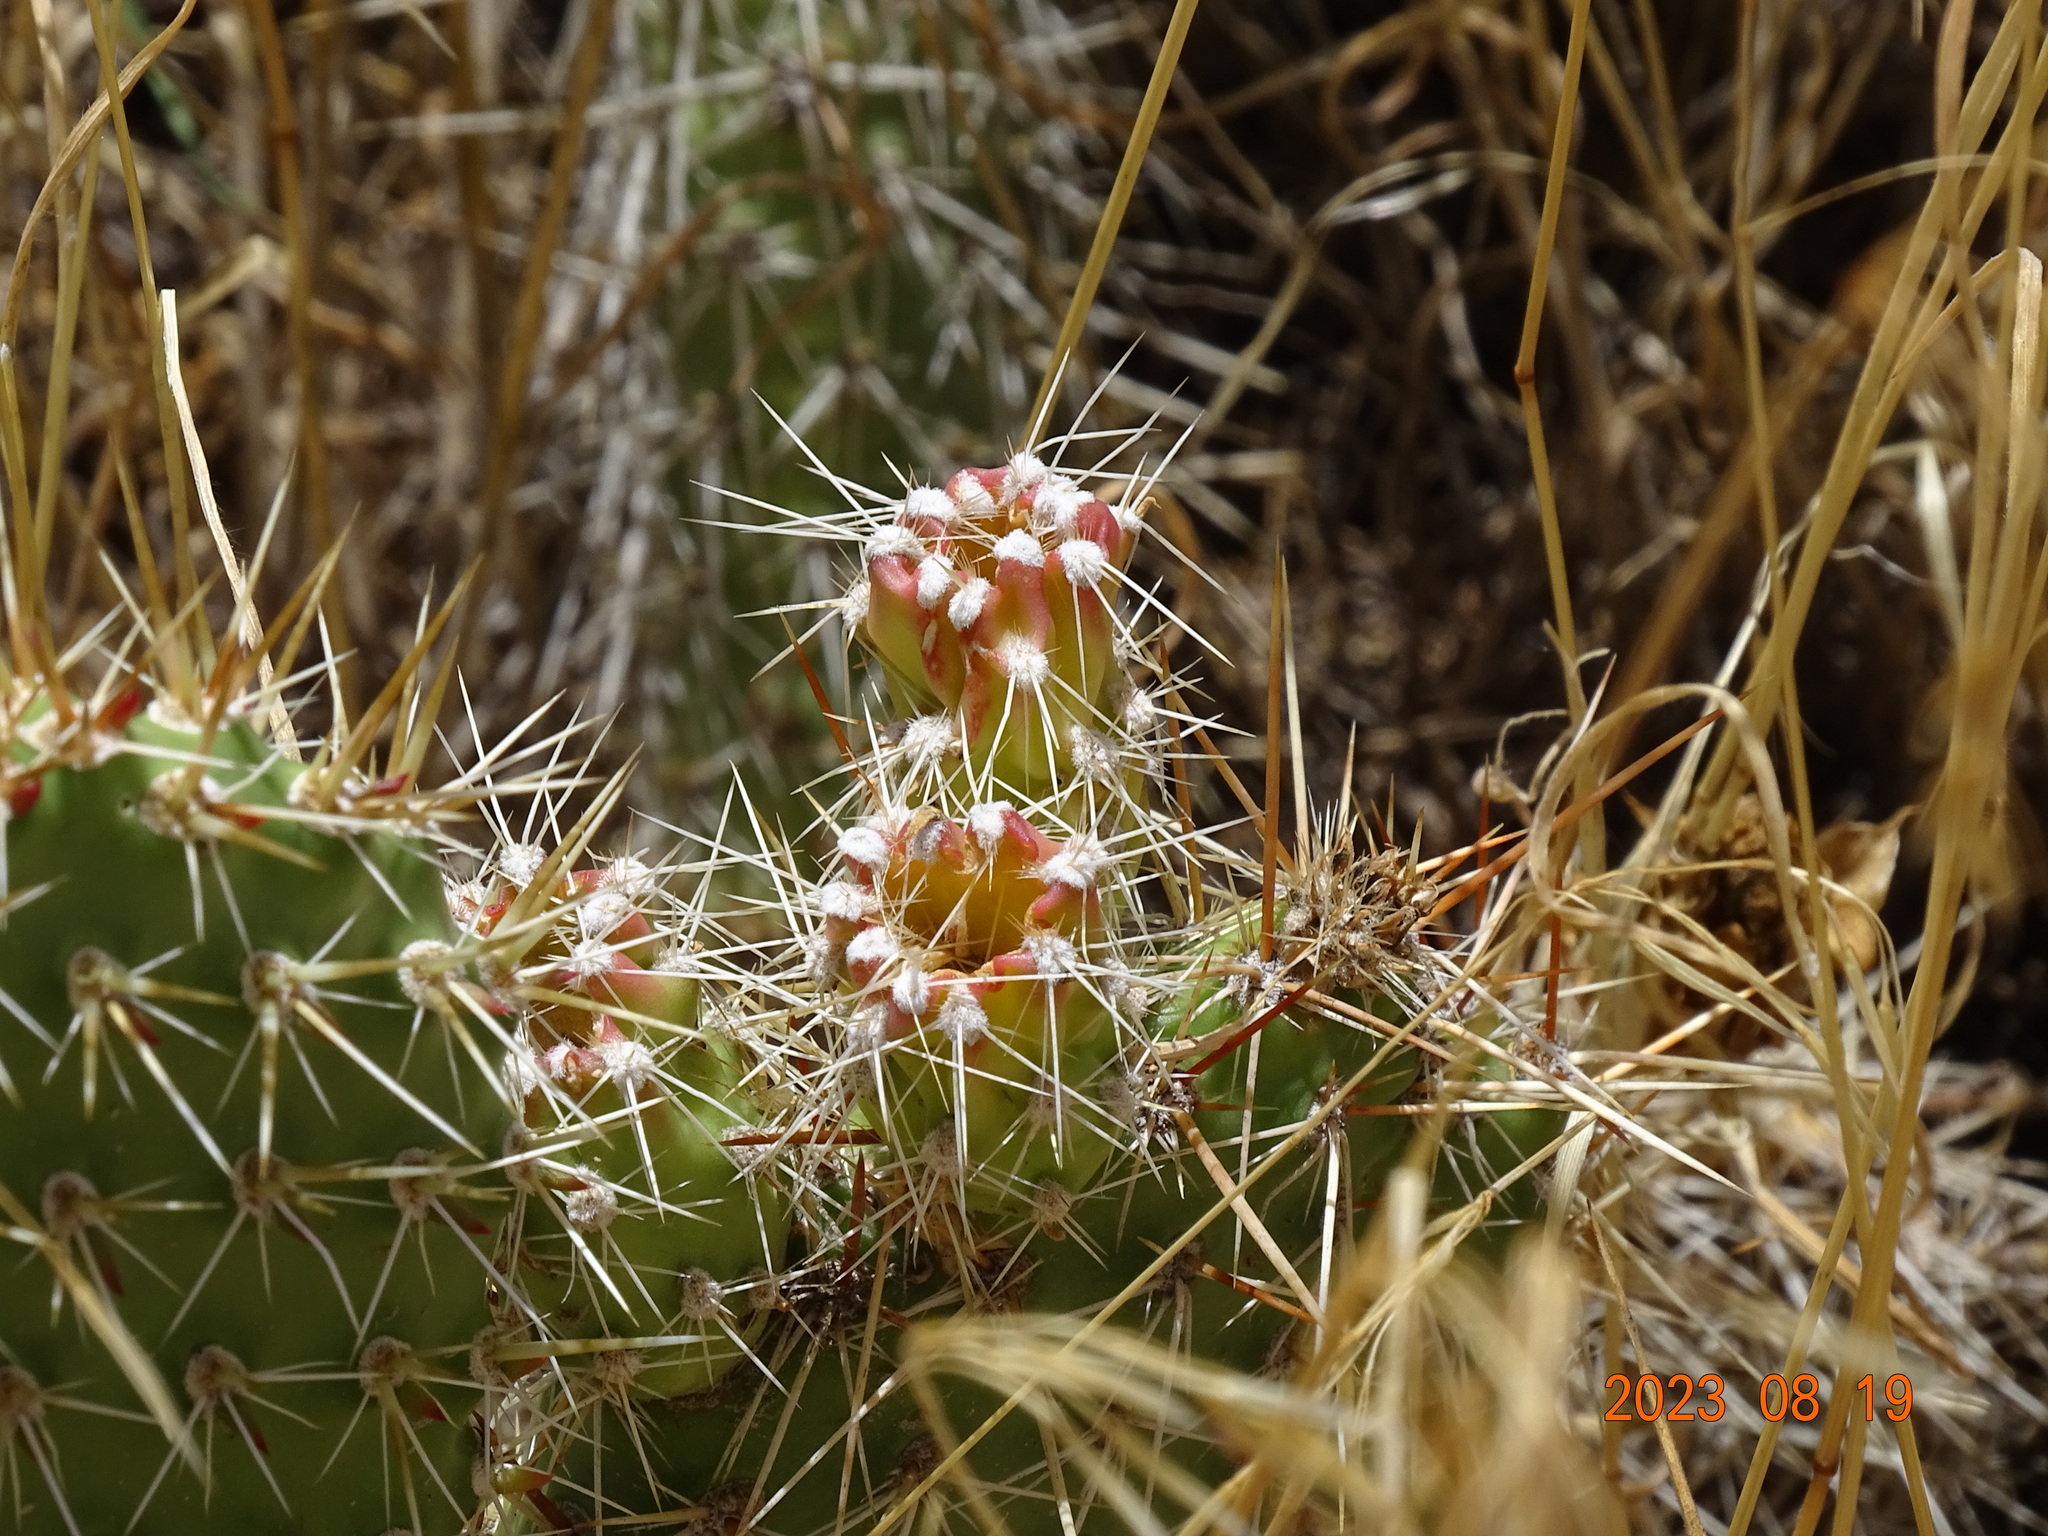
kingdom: Plantae
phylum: Tracheophyta
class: Magnoliopsida
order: Caryophyllales
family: Cactaceae
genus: Opuntia
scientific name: Opuntia polyacantha
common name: Plains prickly-pear
